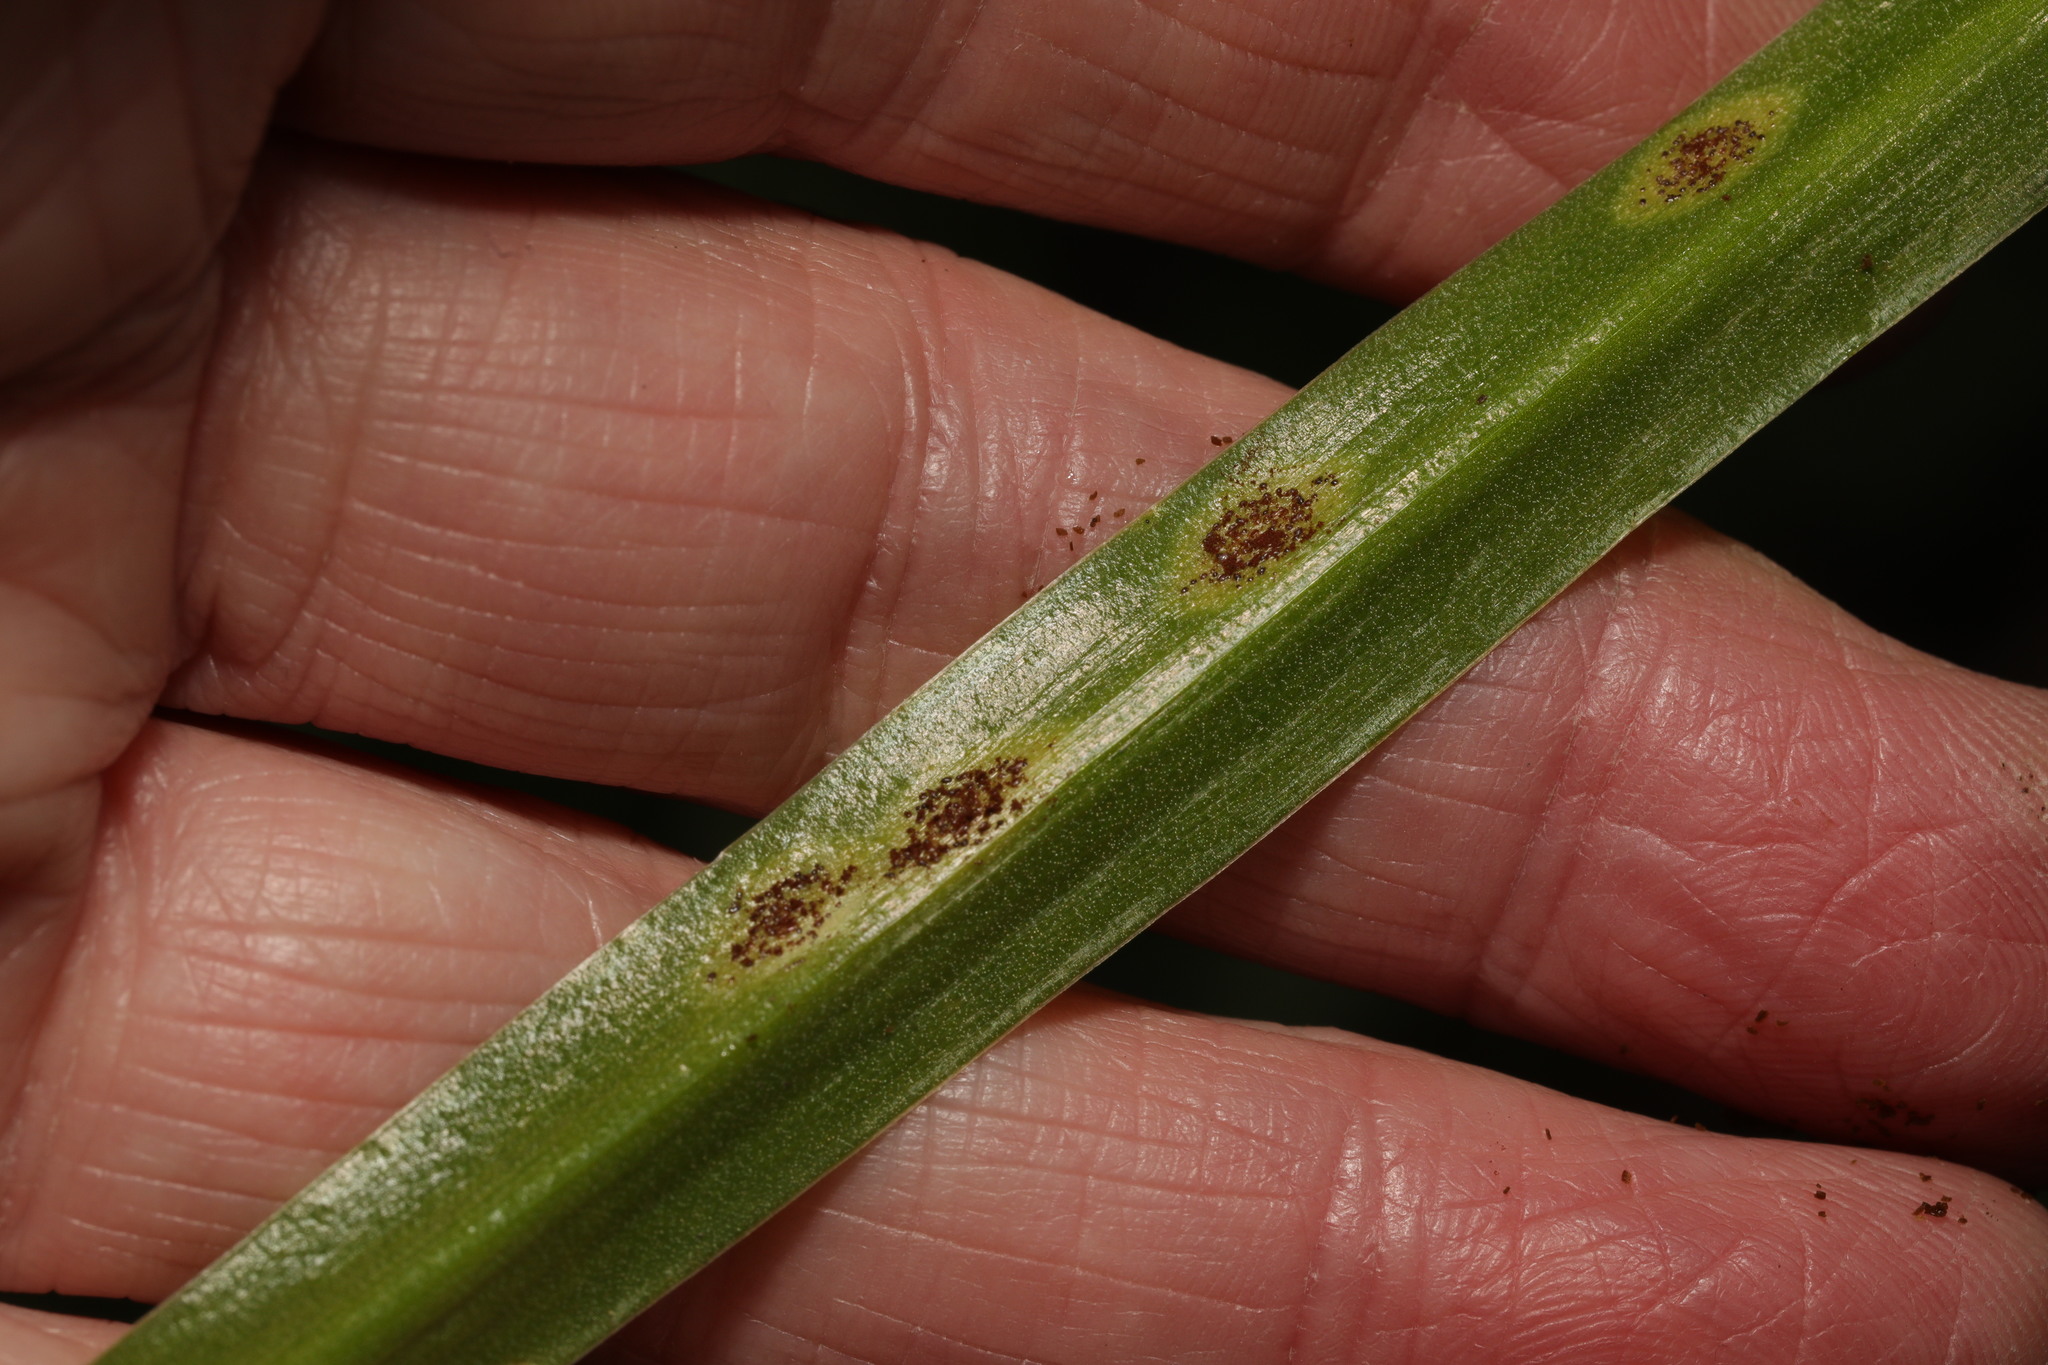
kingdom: Fungi
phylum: Basidiomycota
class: Pucciniomycetes
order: Pucciniales
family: Pucciniaceae
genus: Uromyces
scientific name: Uromyces hyacinthi
